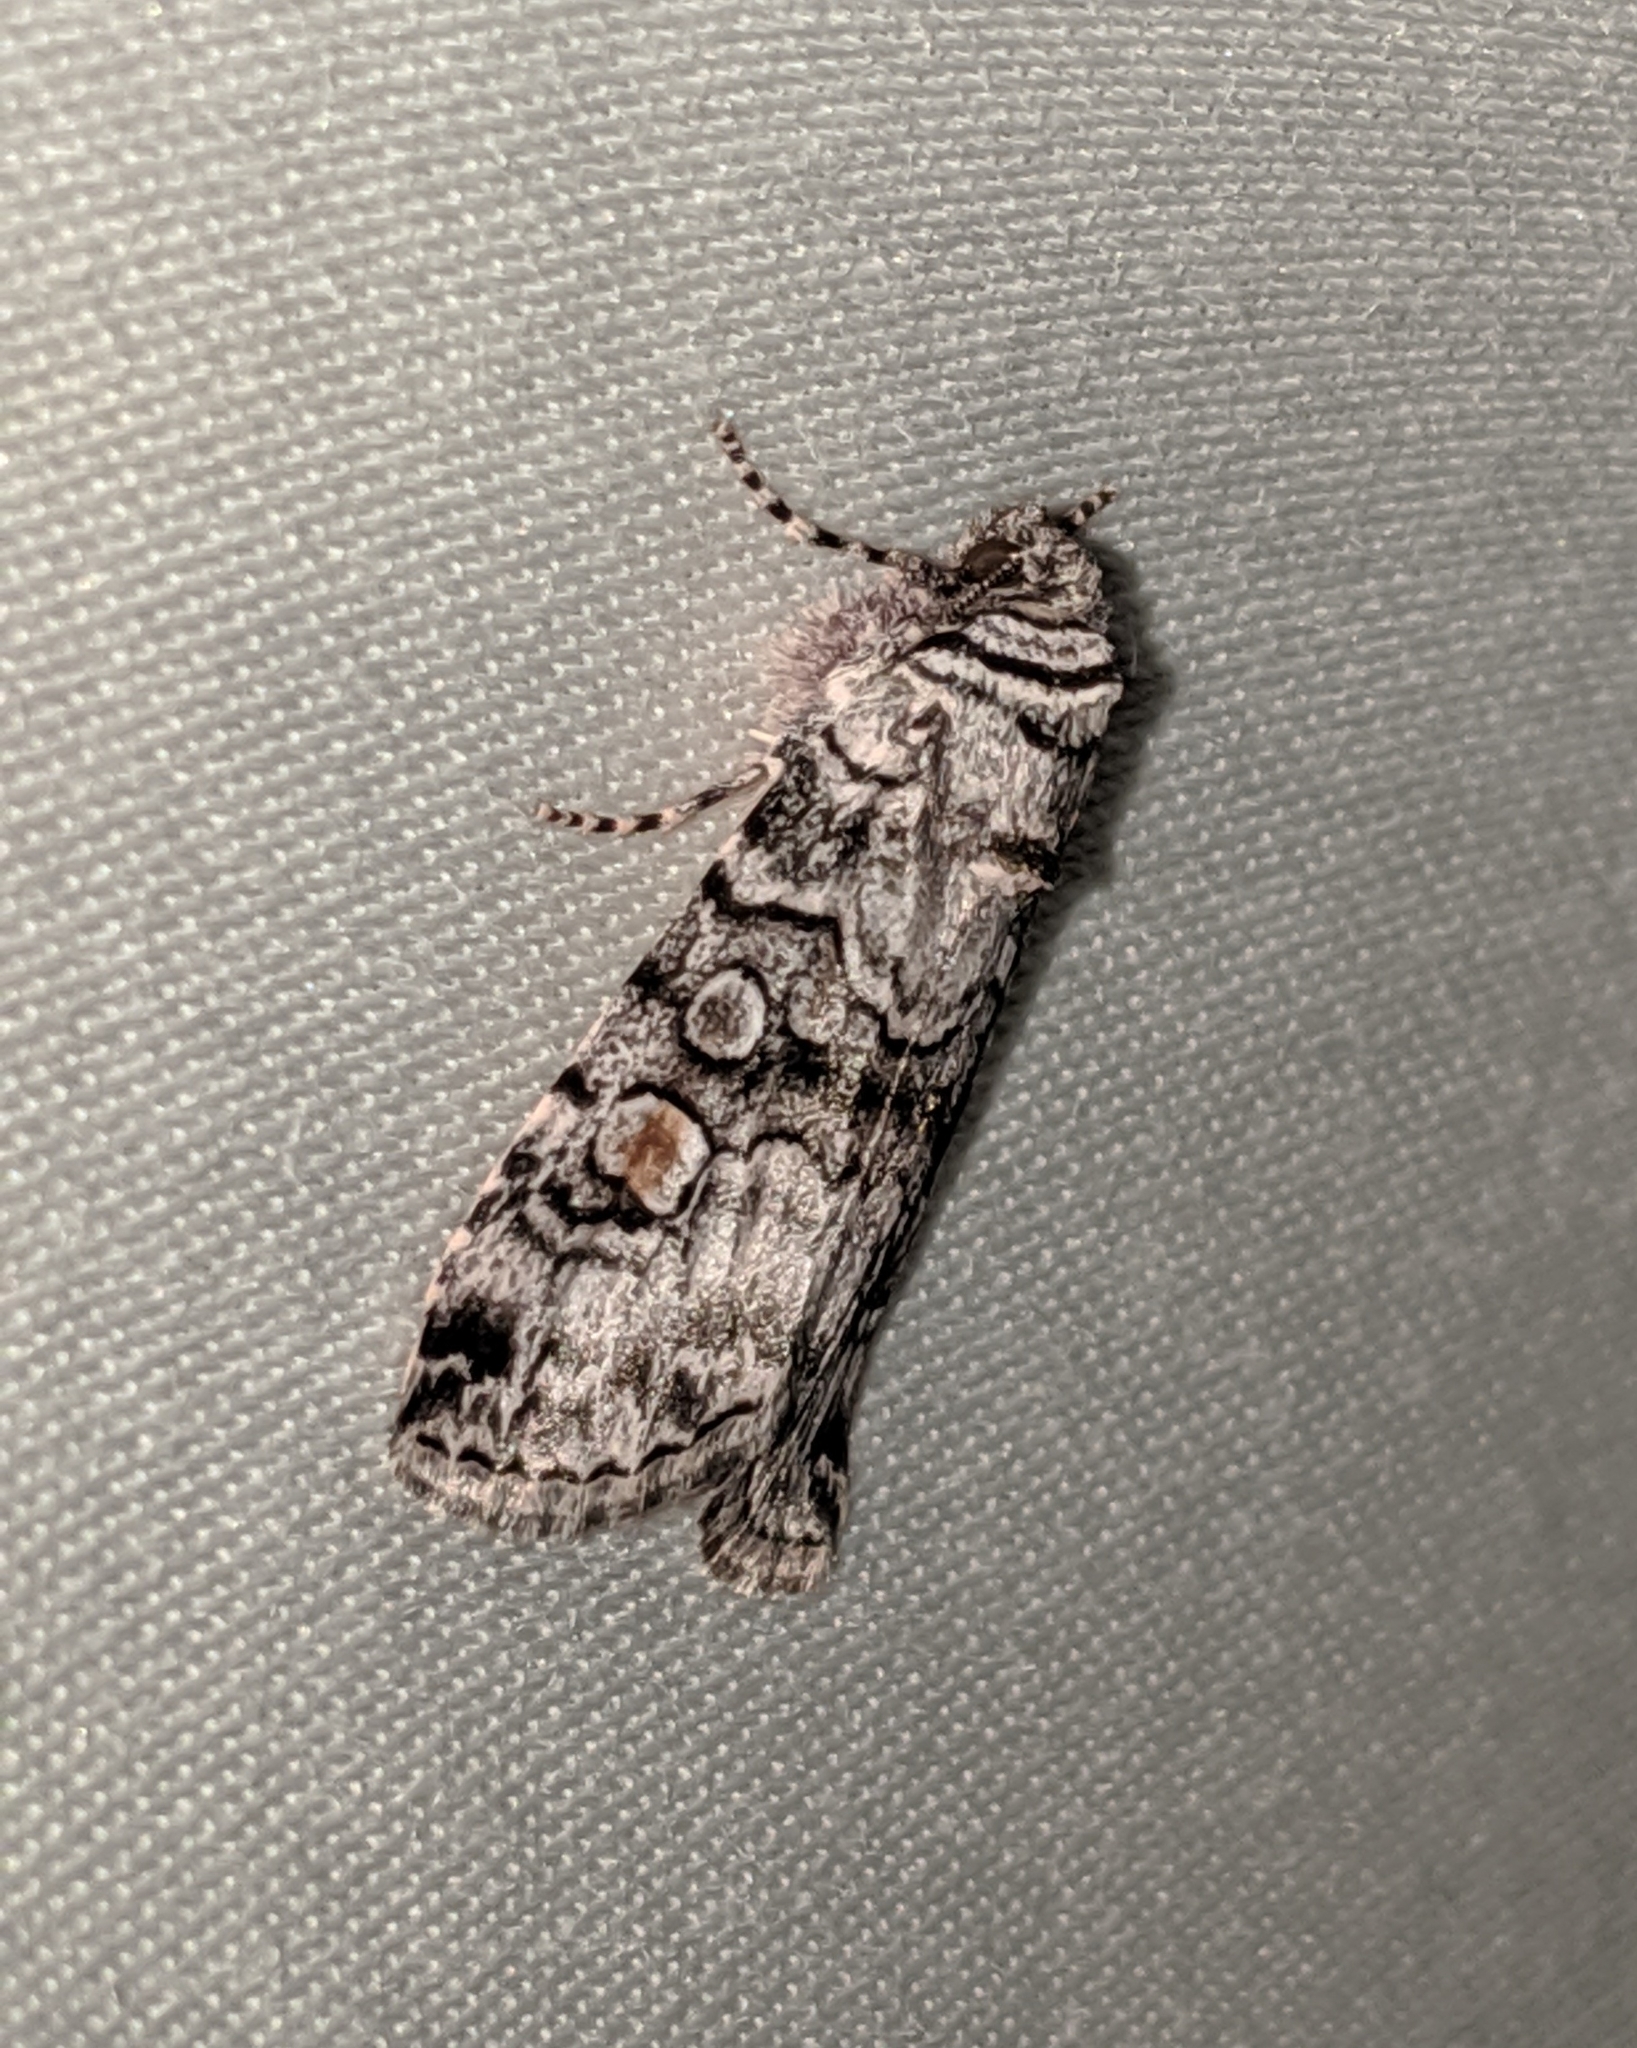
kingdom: Animalia
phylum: Arthropoda
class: Insecta
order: Lepidoptera
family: Noctuidae
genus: Sympistis
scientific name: Sympistis dunbari
